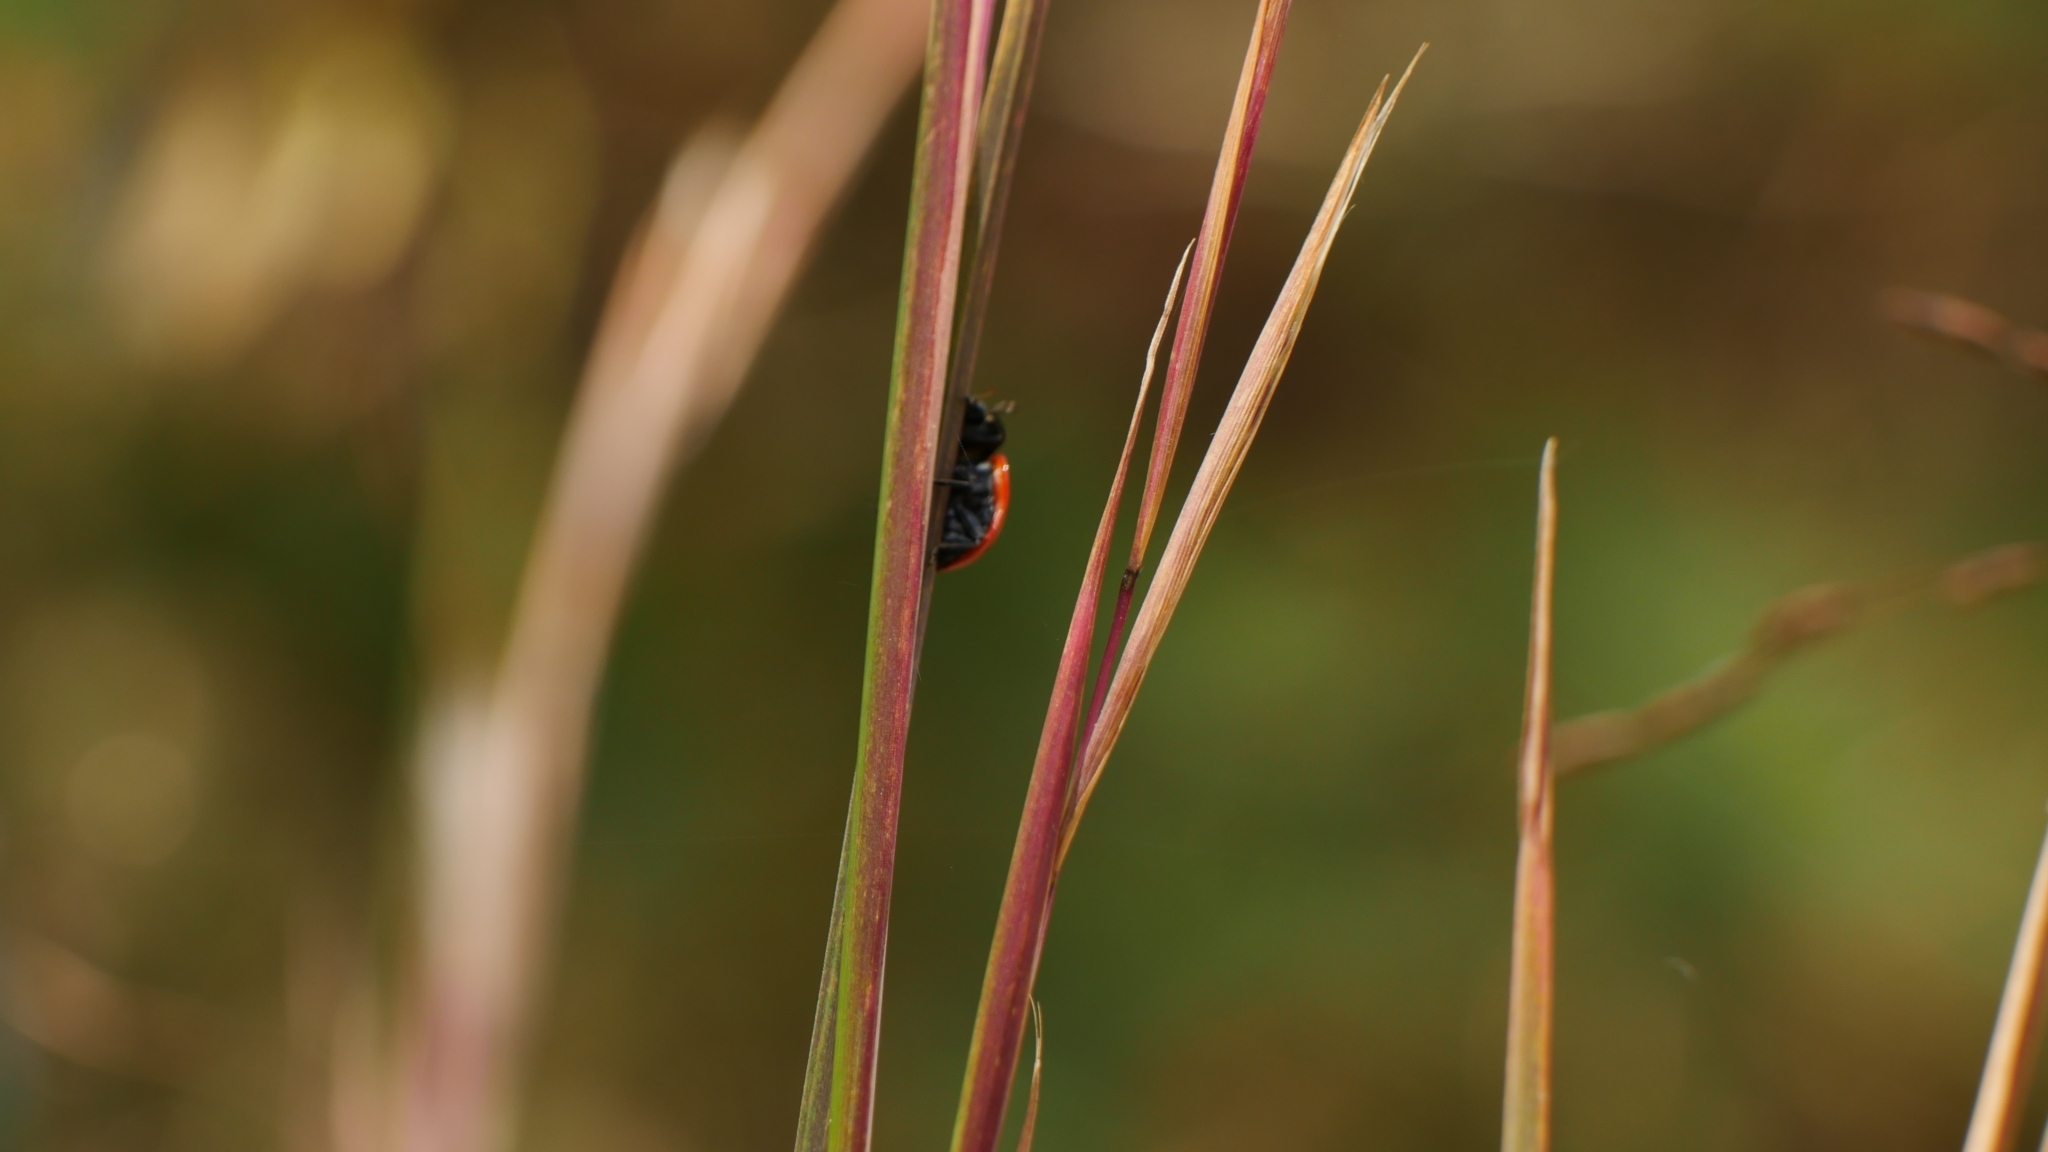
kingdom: Animalia
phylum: Arthropoda
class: Insecta
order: Coleoptera
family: Coccinellidae
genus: Coccinella
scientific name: Coccinella septempunctata
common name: Sevenspotted lady beetle
